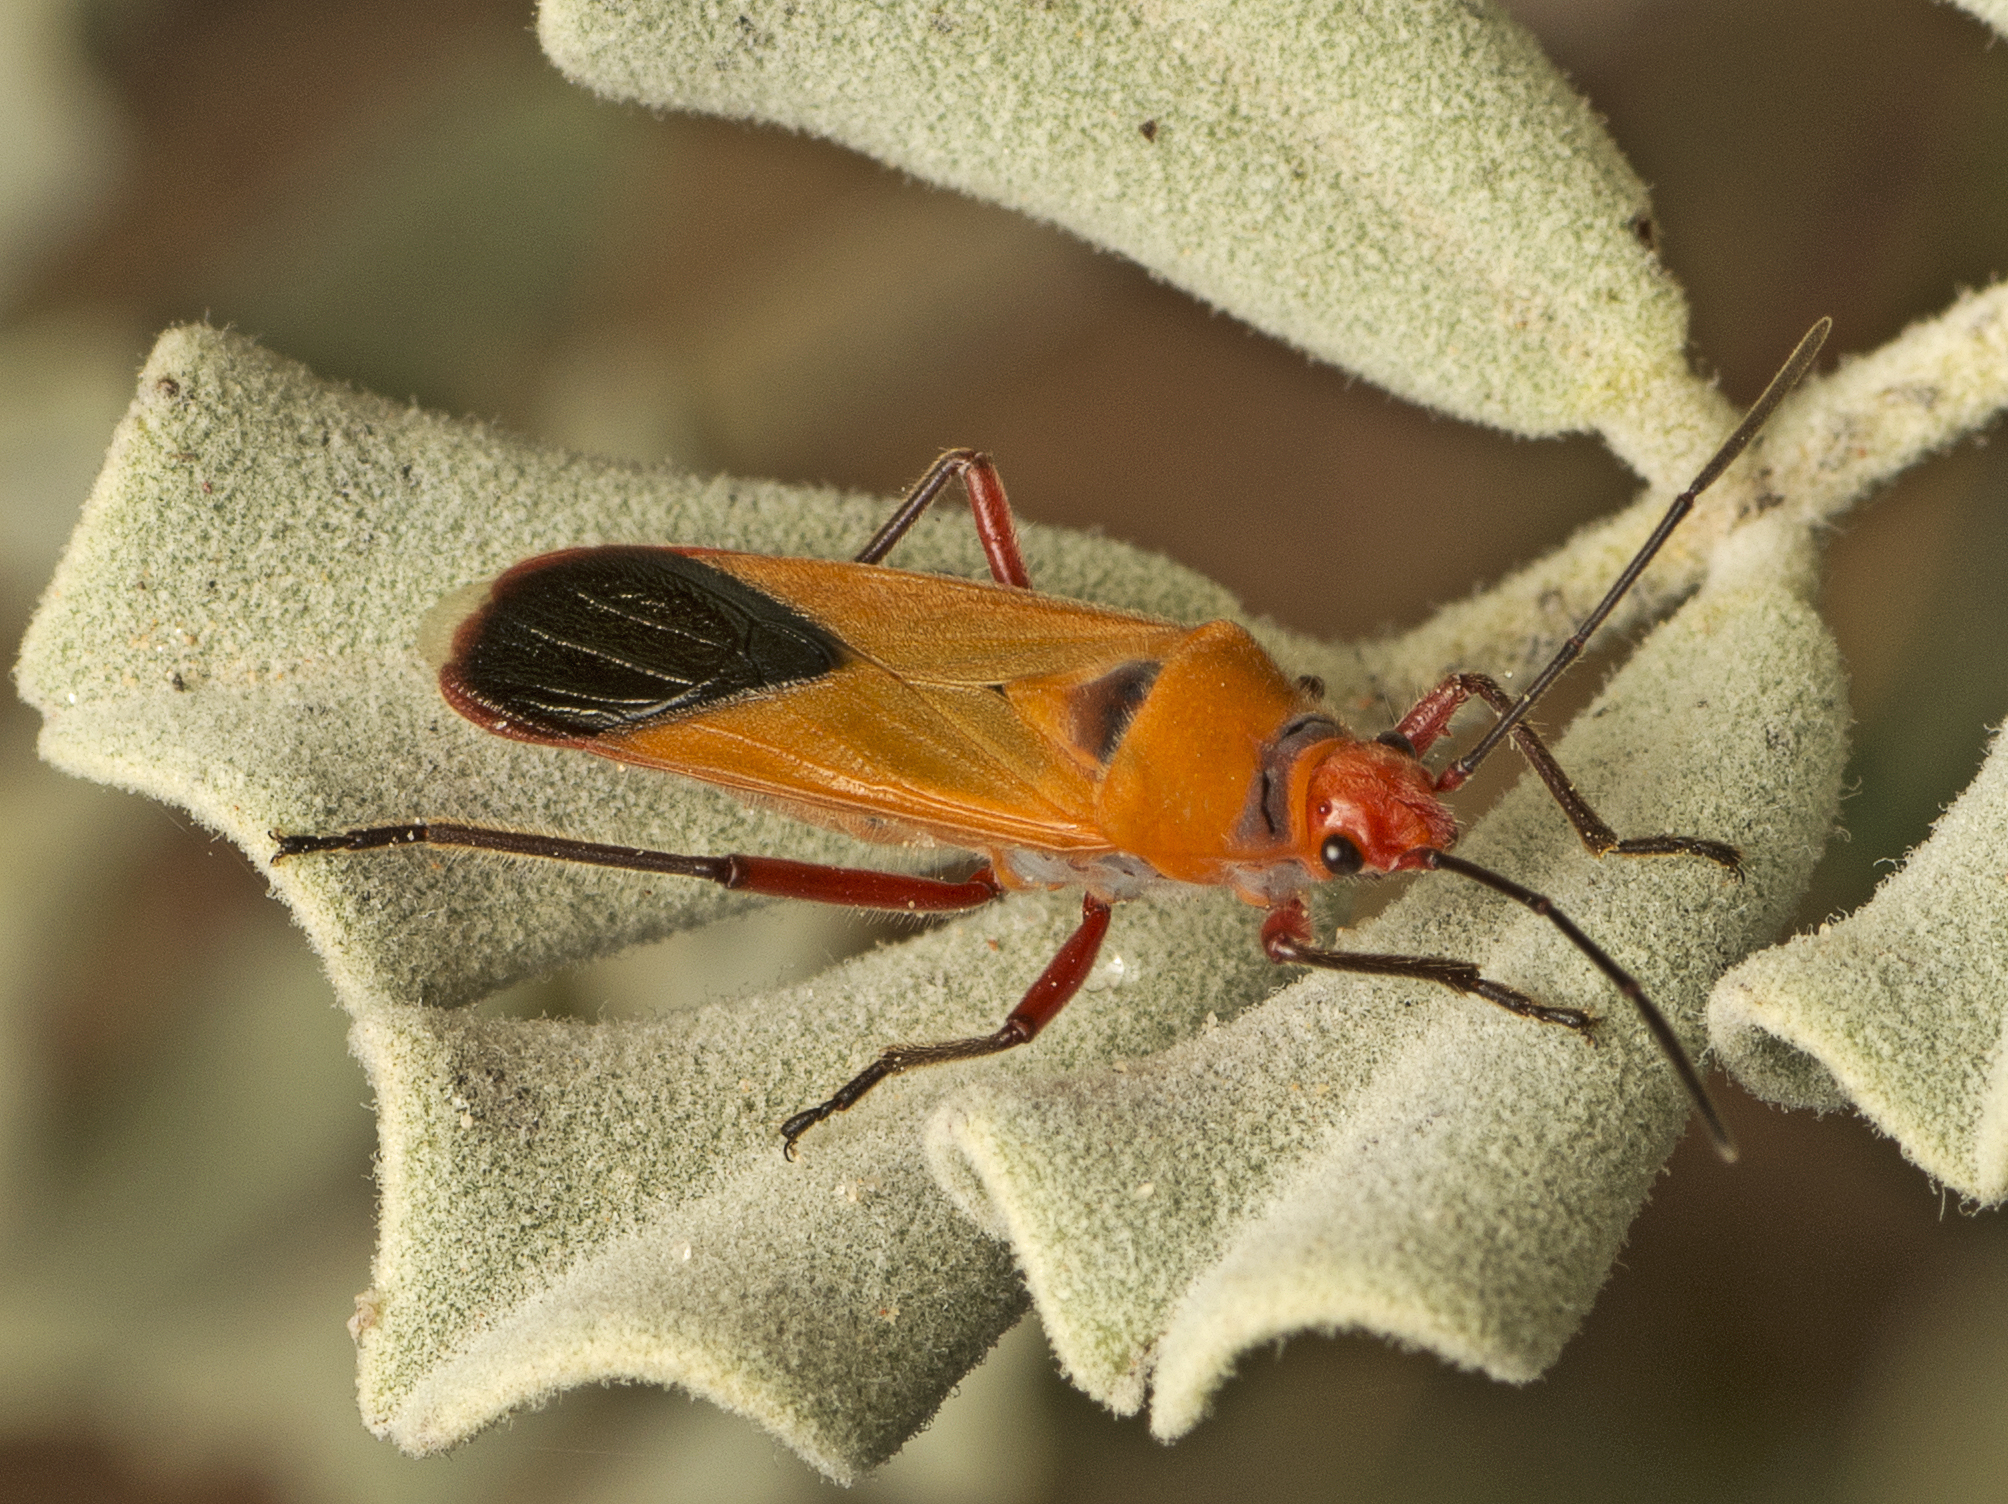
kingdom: Animalia
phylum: Arthropoda
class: Insecta
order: Hemiptera
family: Lygaeidae
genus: Thunbergia
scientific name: Thunbergia rufifemur
